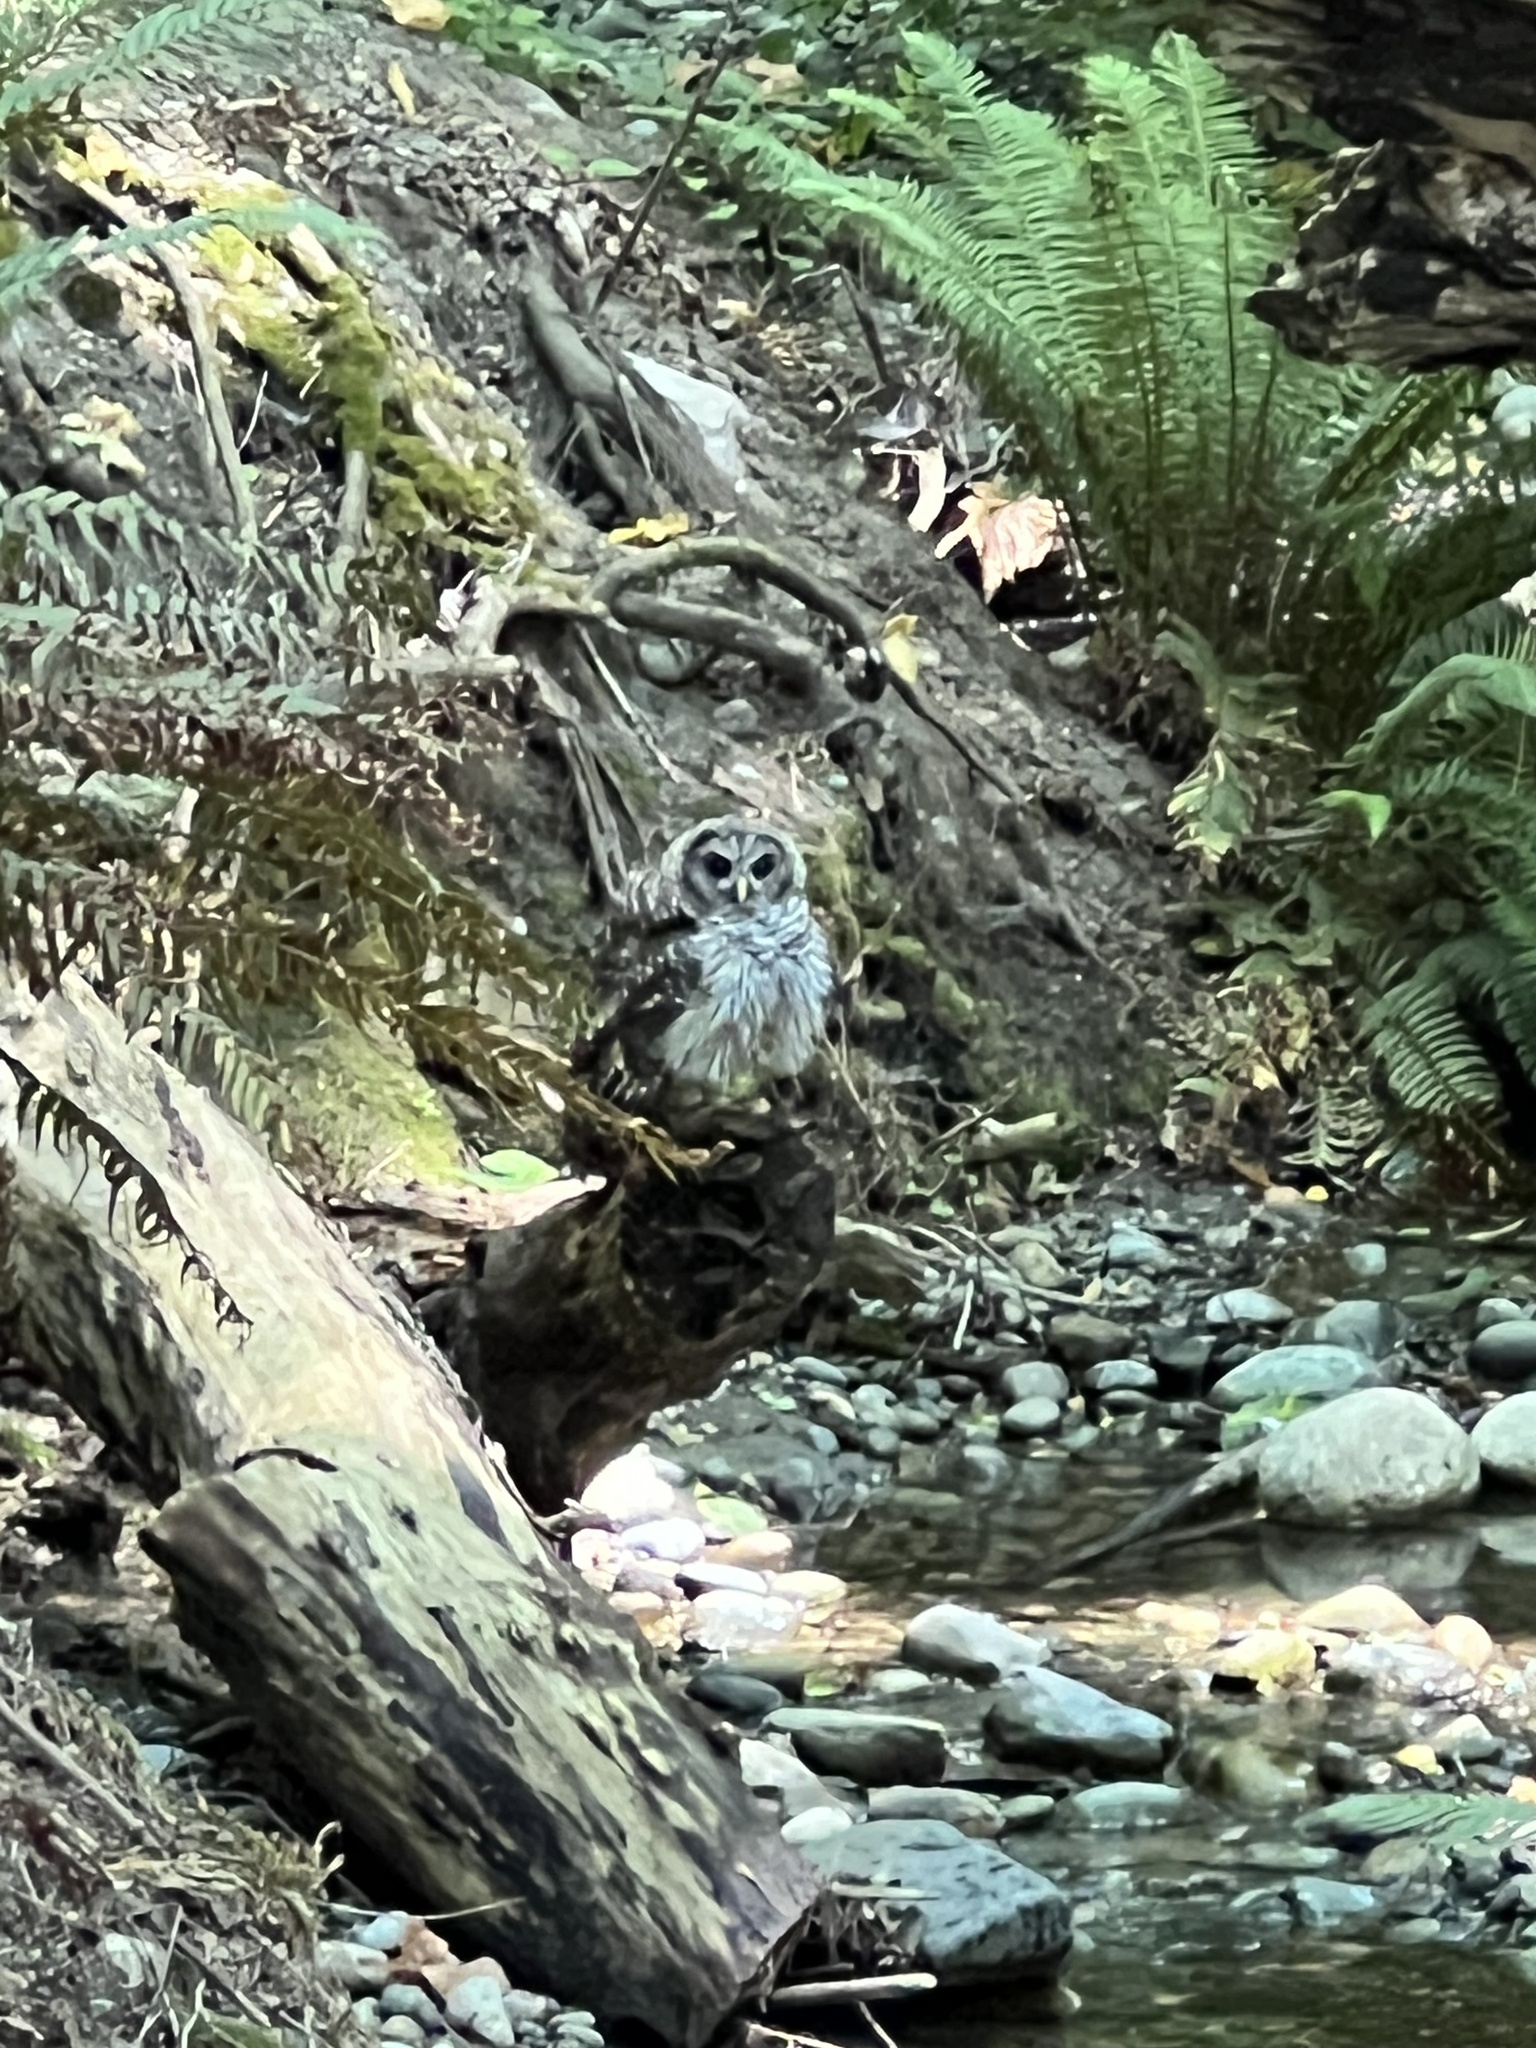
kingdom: Animalia
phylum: Chordata
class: Aves
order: Strigiformes
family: Strigidae
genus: Strix
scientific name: Strix varia
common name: Barred owl
